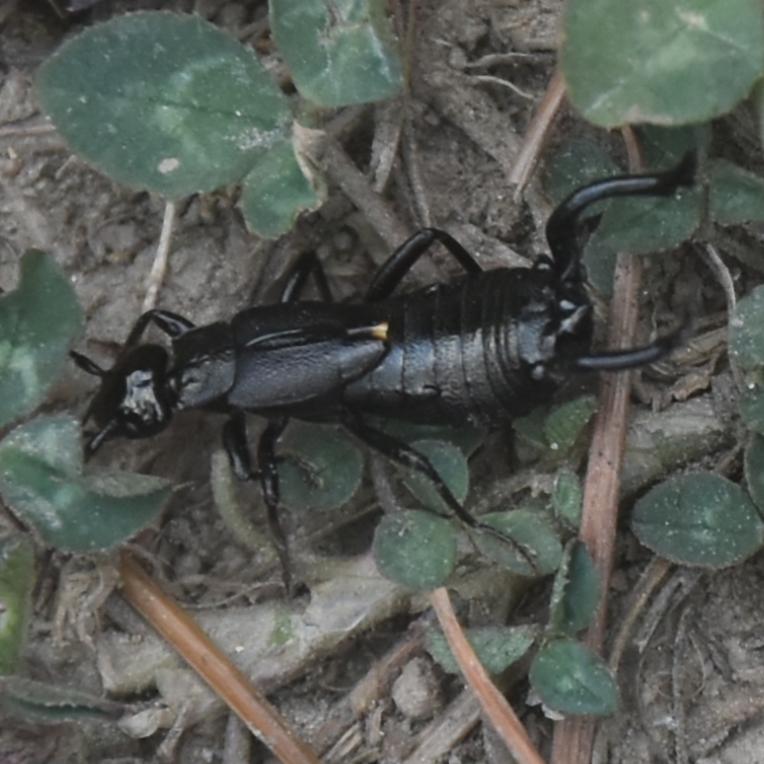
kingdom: Animalia
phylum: Arthropoda
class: Insecta
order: Dermaptera
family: Forficulidae
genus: Allodahlia
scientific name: Allodahlia macropyga
